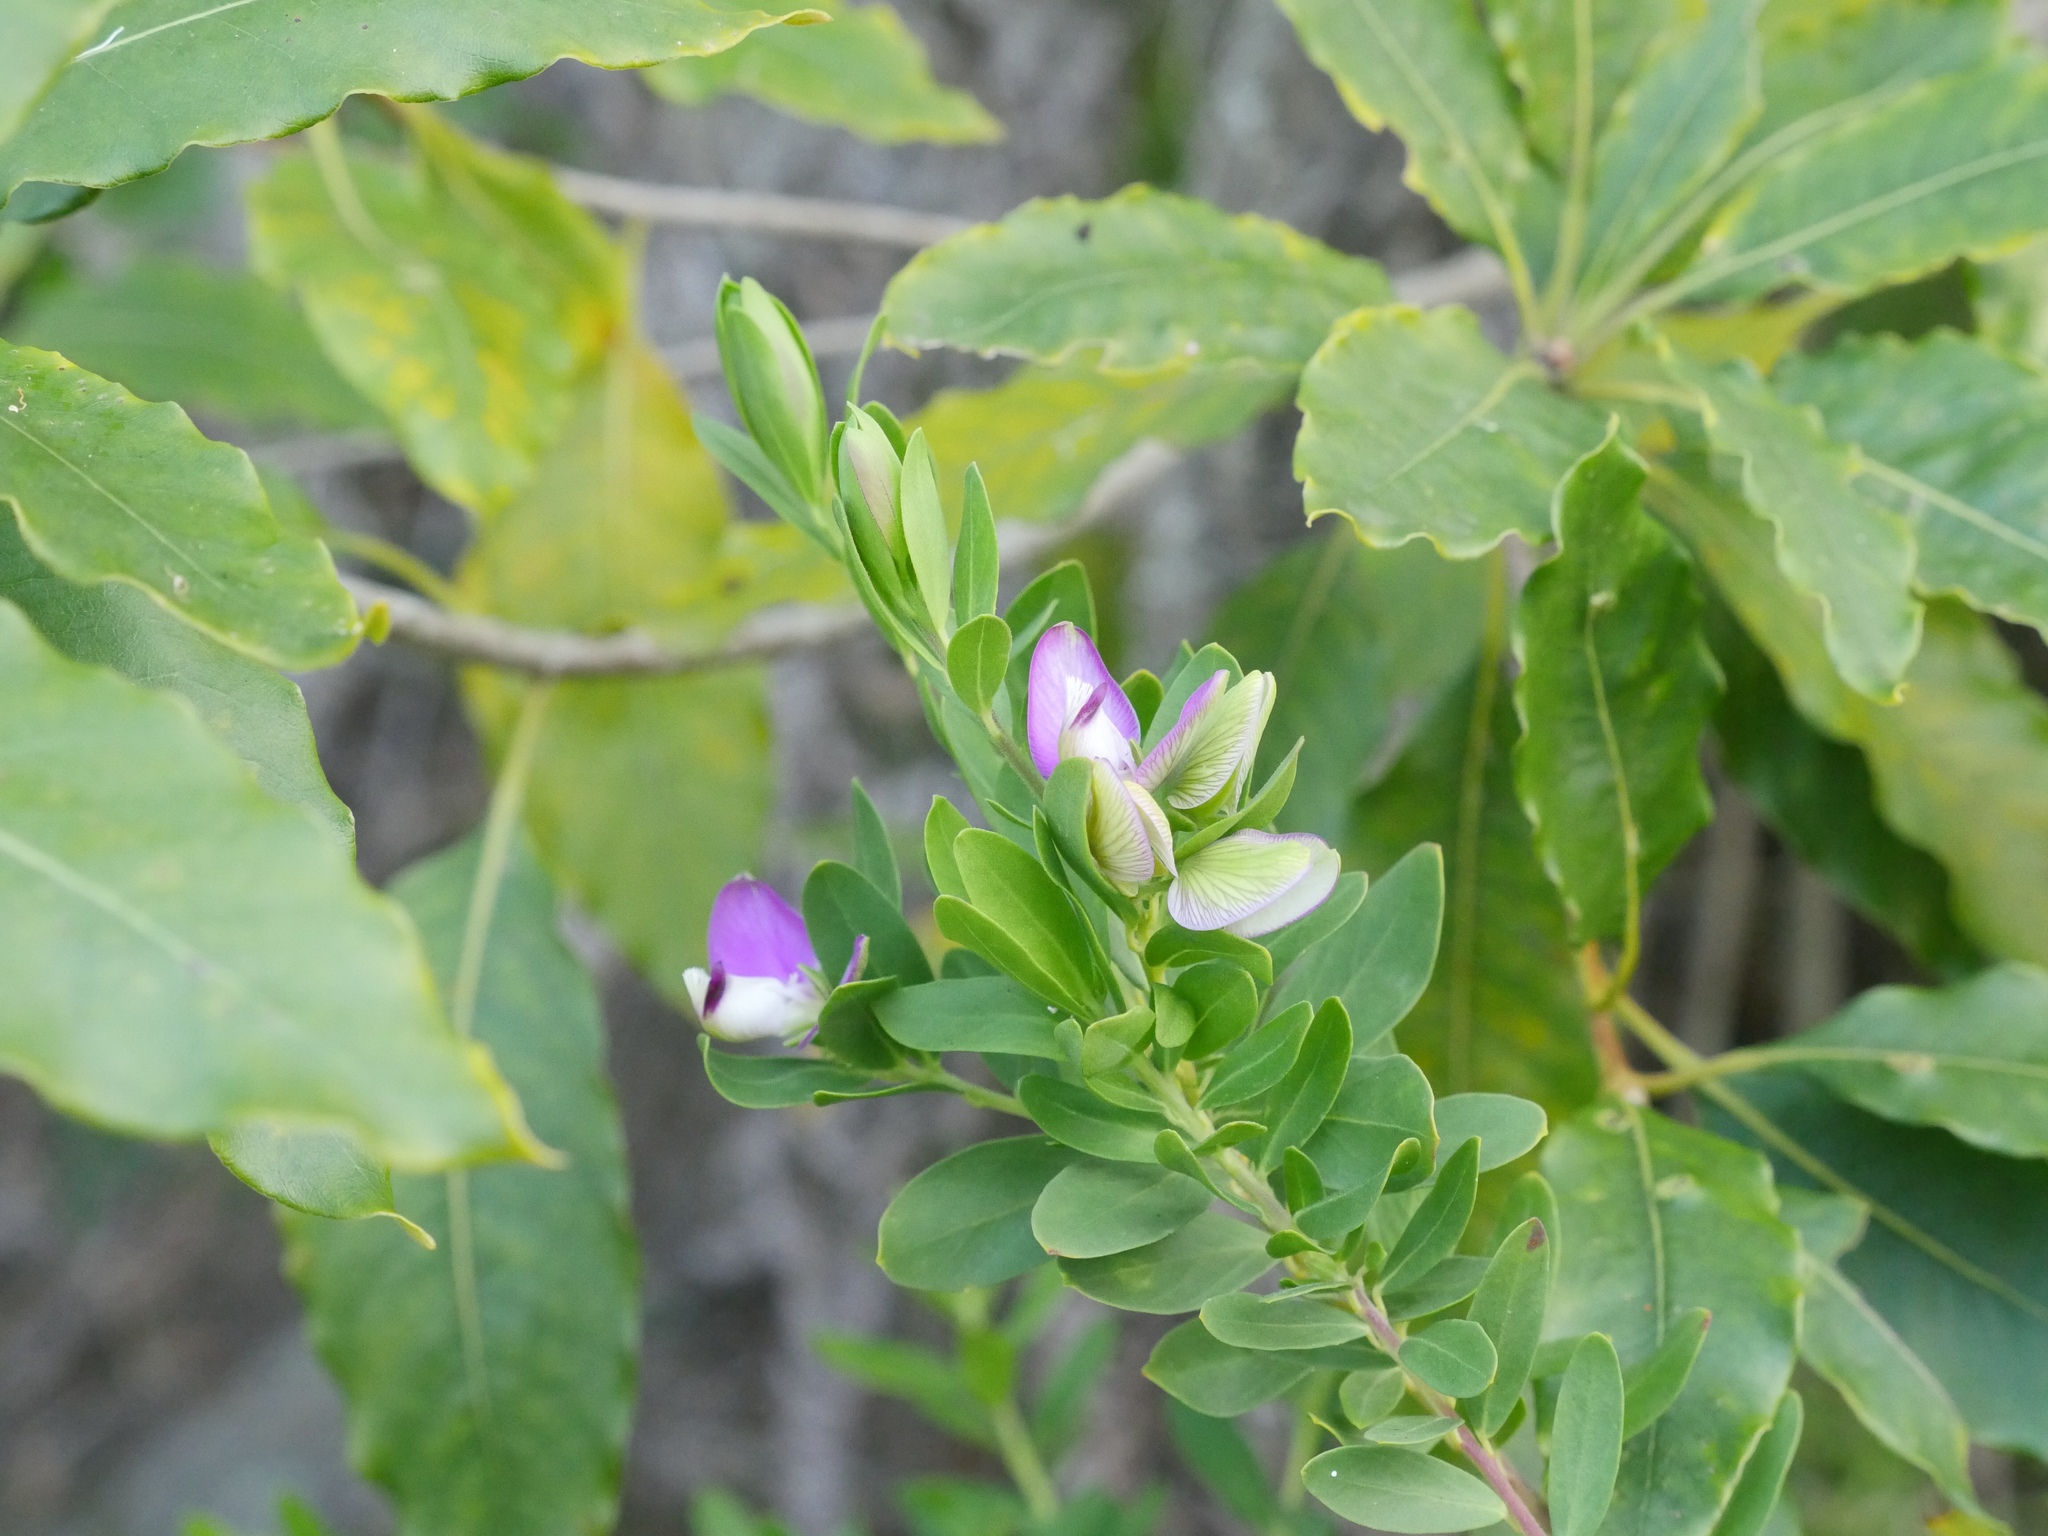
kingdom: Plantae
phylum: Tracheophyta
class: Magnoliopsida
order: Fabales
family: Polygalaceae
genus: Polygala
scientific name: Polygala myrtifolia
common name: Myrtle-leaf milkwort
